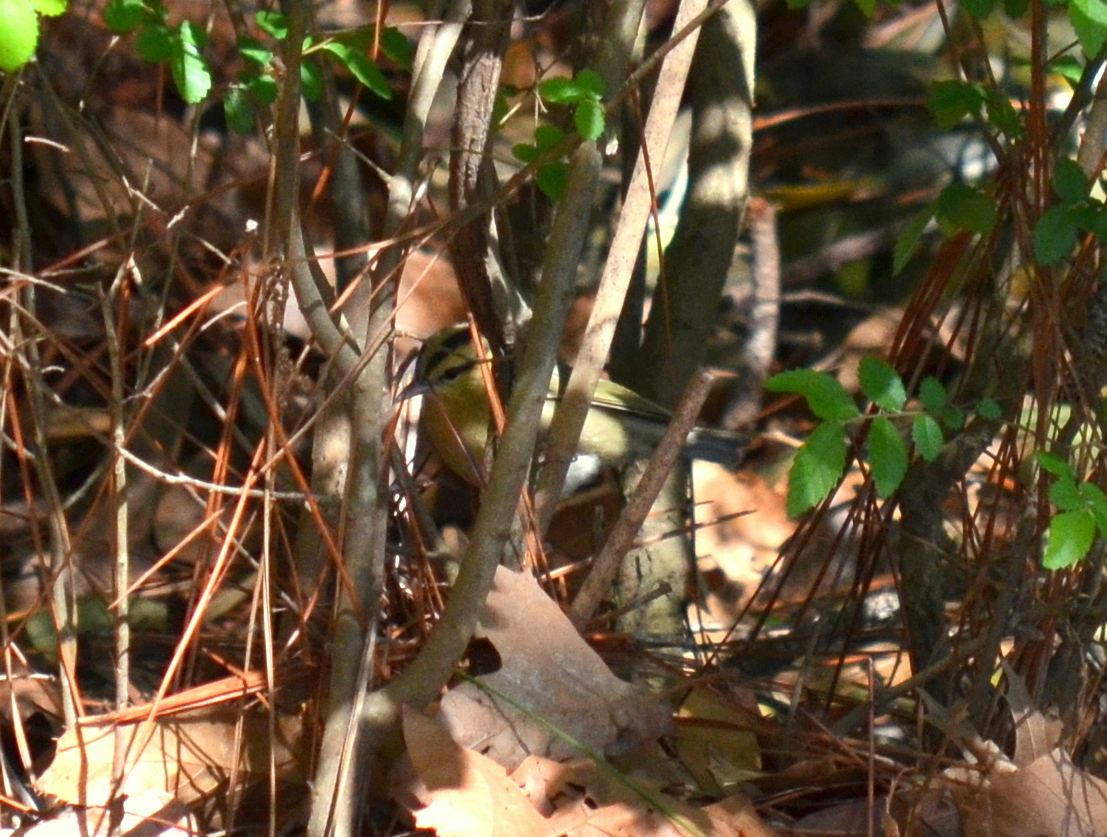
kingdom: Animalia
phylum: Chordata
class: Aves
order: Passeriformes
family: Parulidae
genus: Helmitheros
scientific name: Helmitheros vermivorum
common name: Worm-eating warbler
